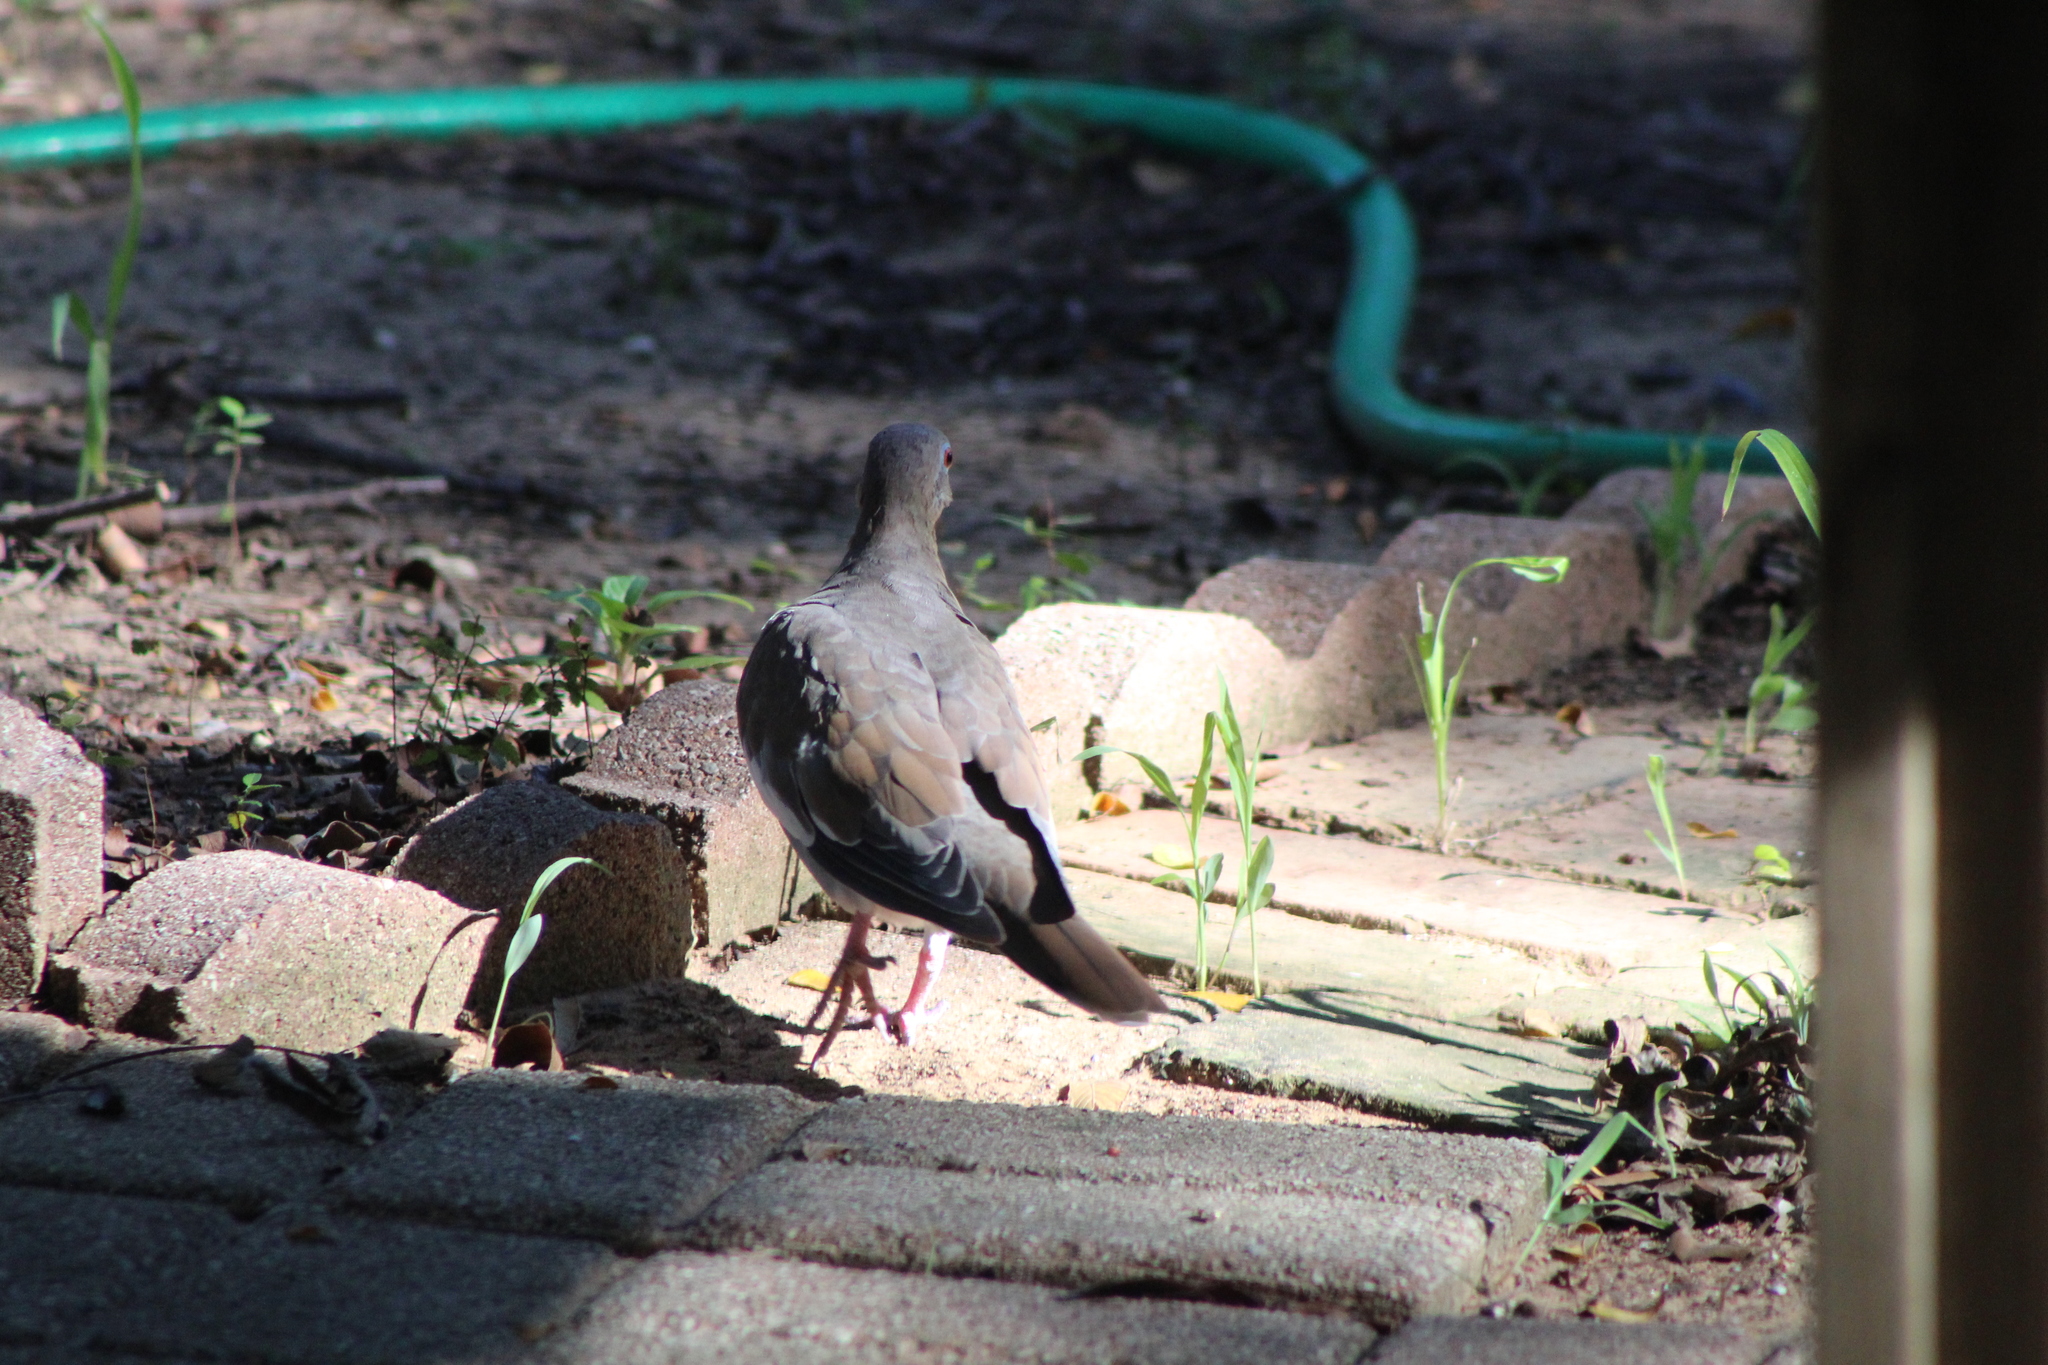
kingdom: Animalia
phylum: Chordata
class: Aves
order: Columbiformes
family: Columbidae
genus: Zenaida
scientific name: Zenaida asiatica
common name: White-winged dove
